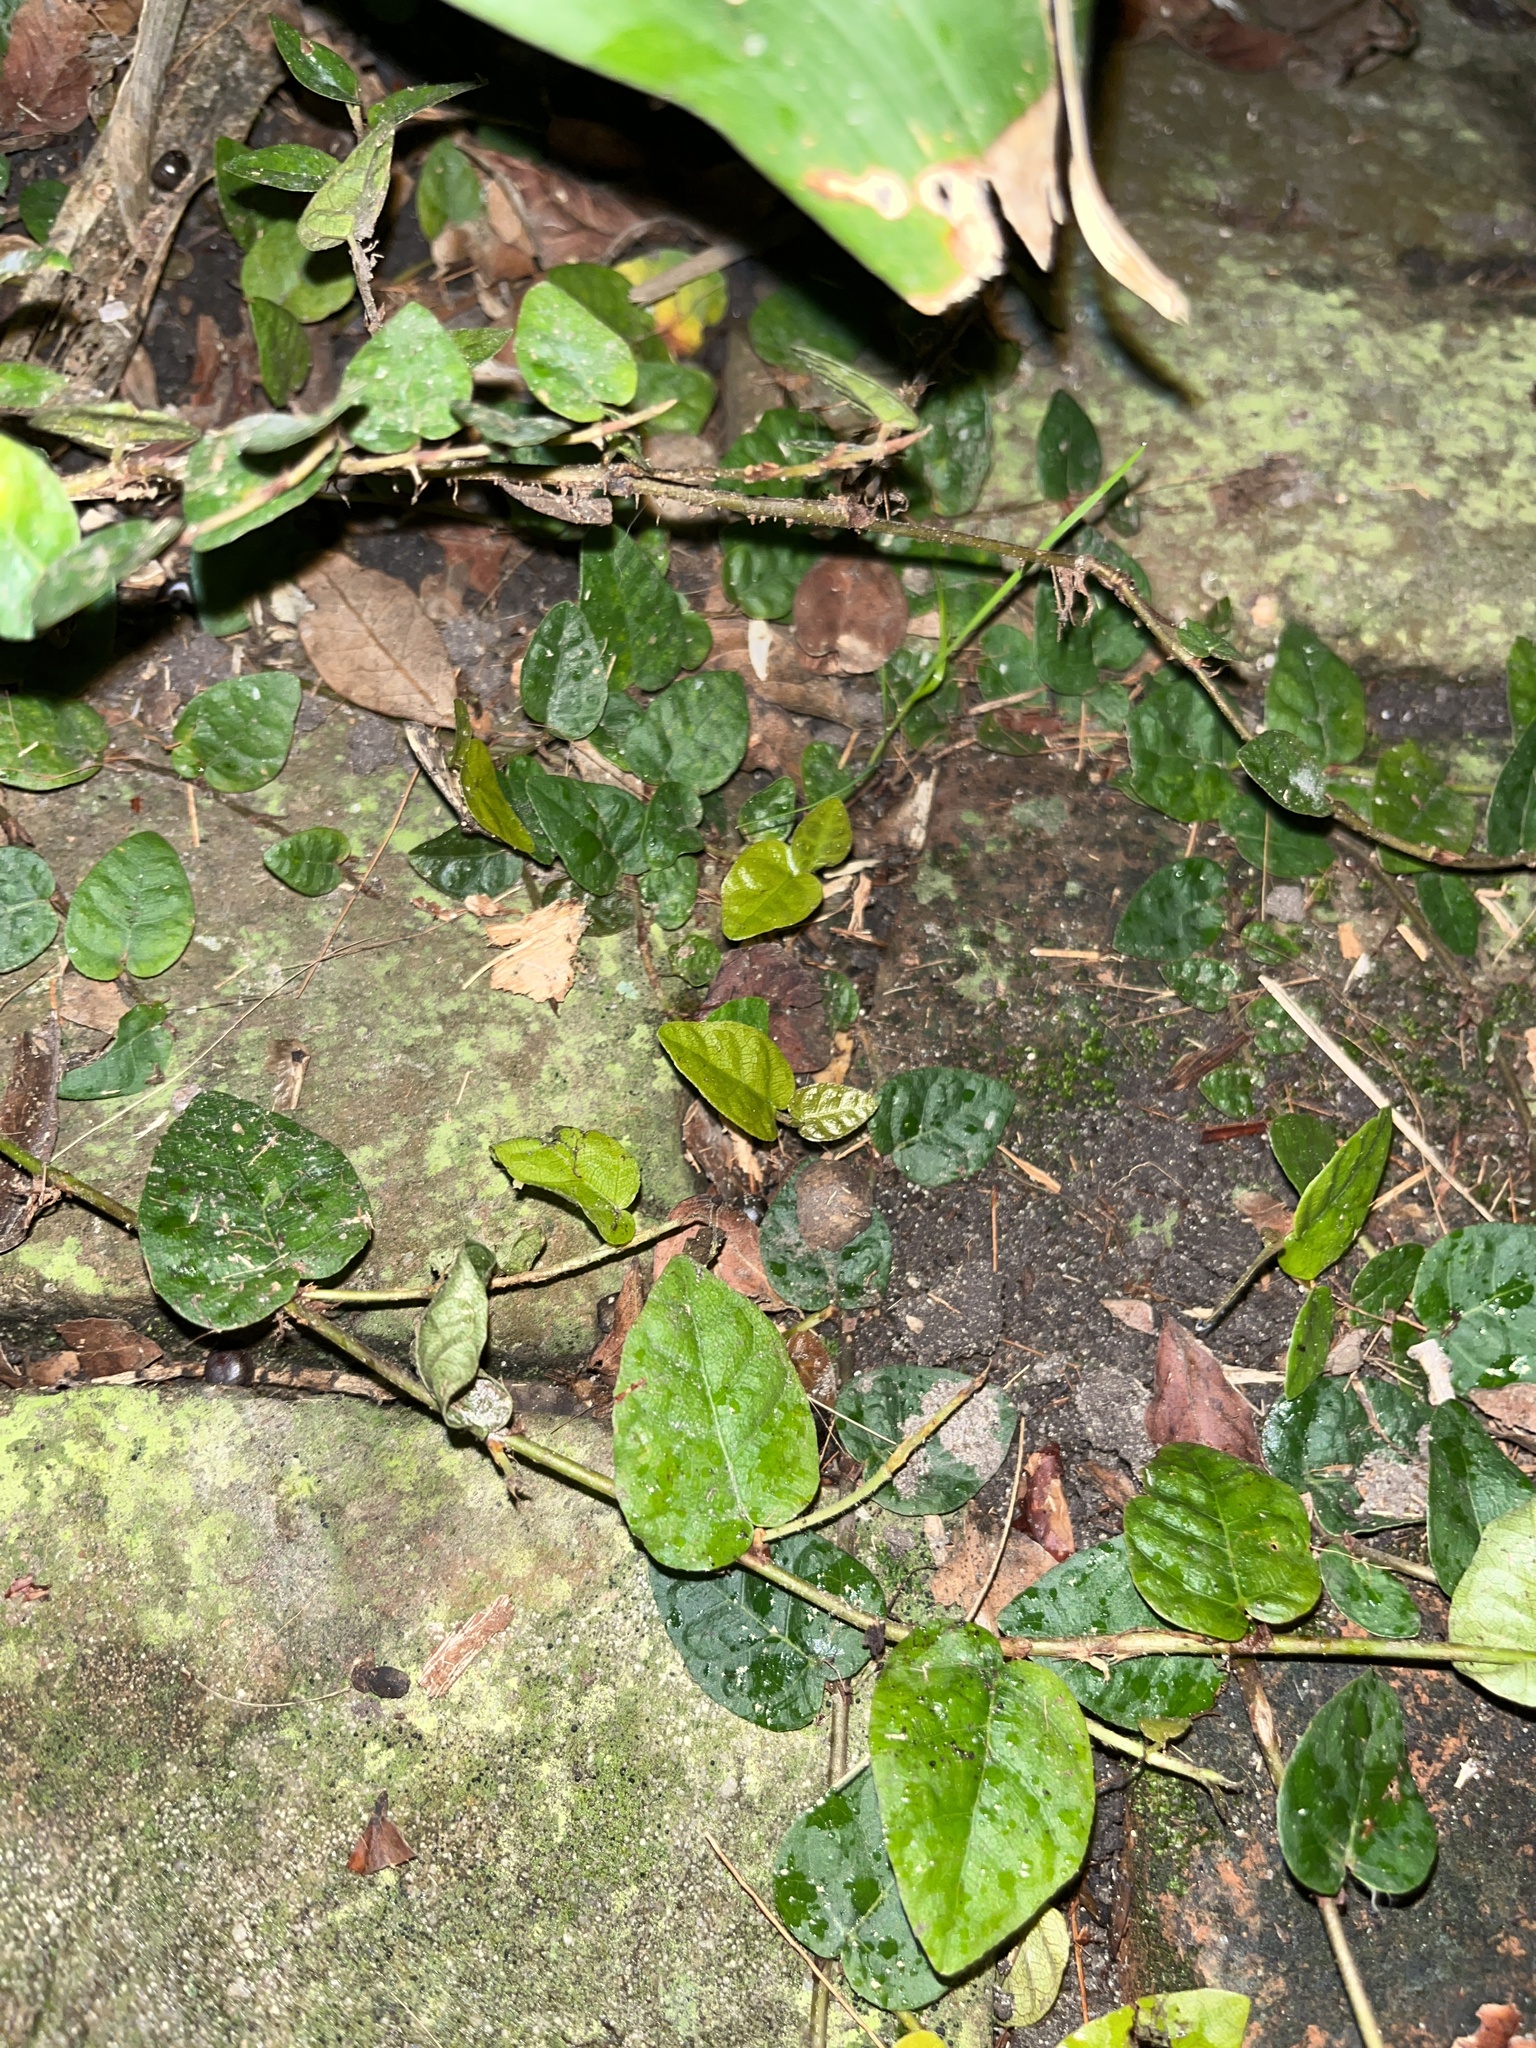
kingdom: Plantae
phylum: Tracheophyta
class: Magnoliopsida
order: Rosales
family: Moraceae
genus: Ficus
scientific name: Ficus pumila
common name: Climbingfig
